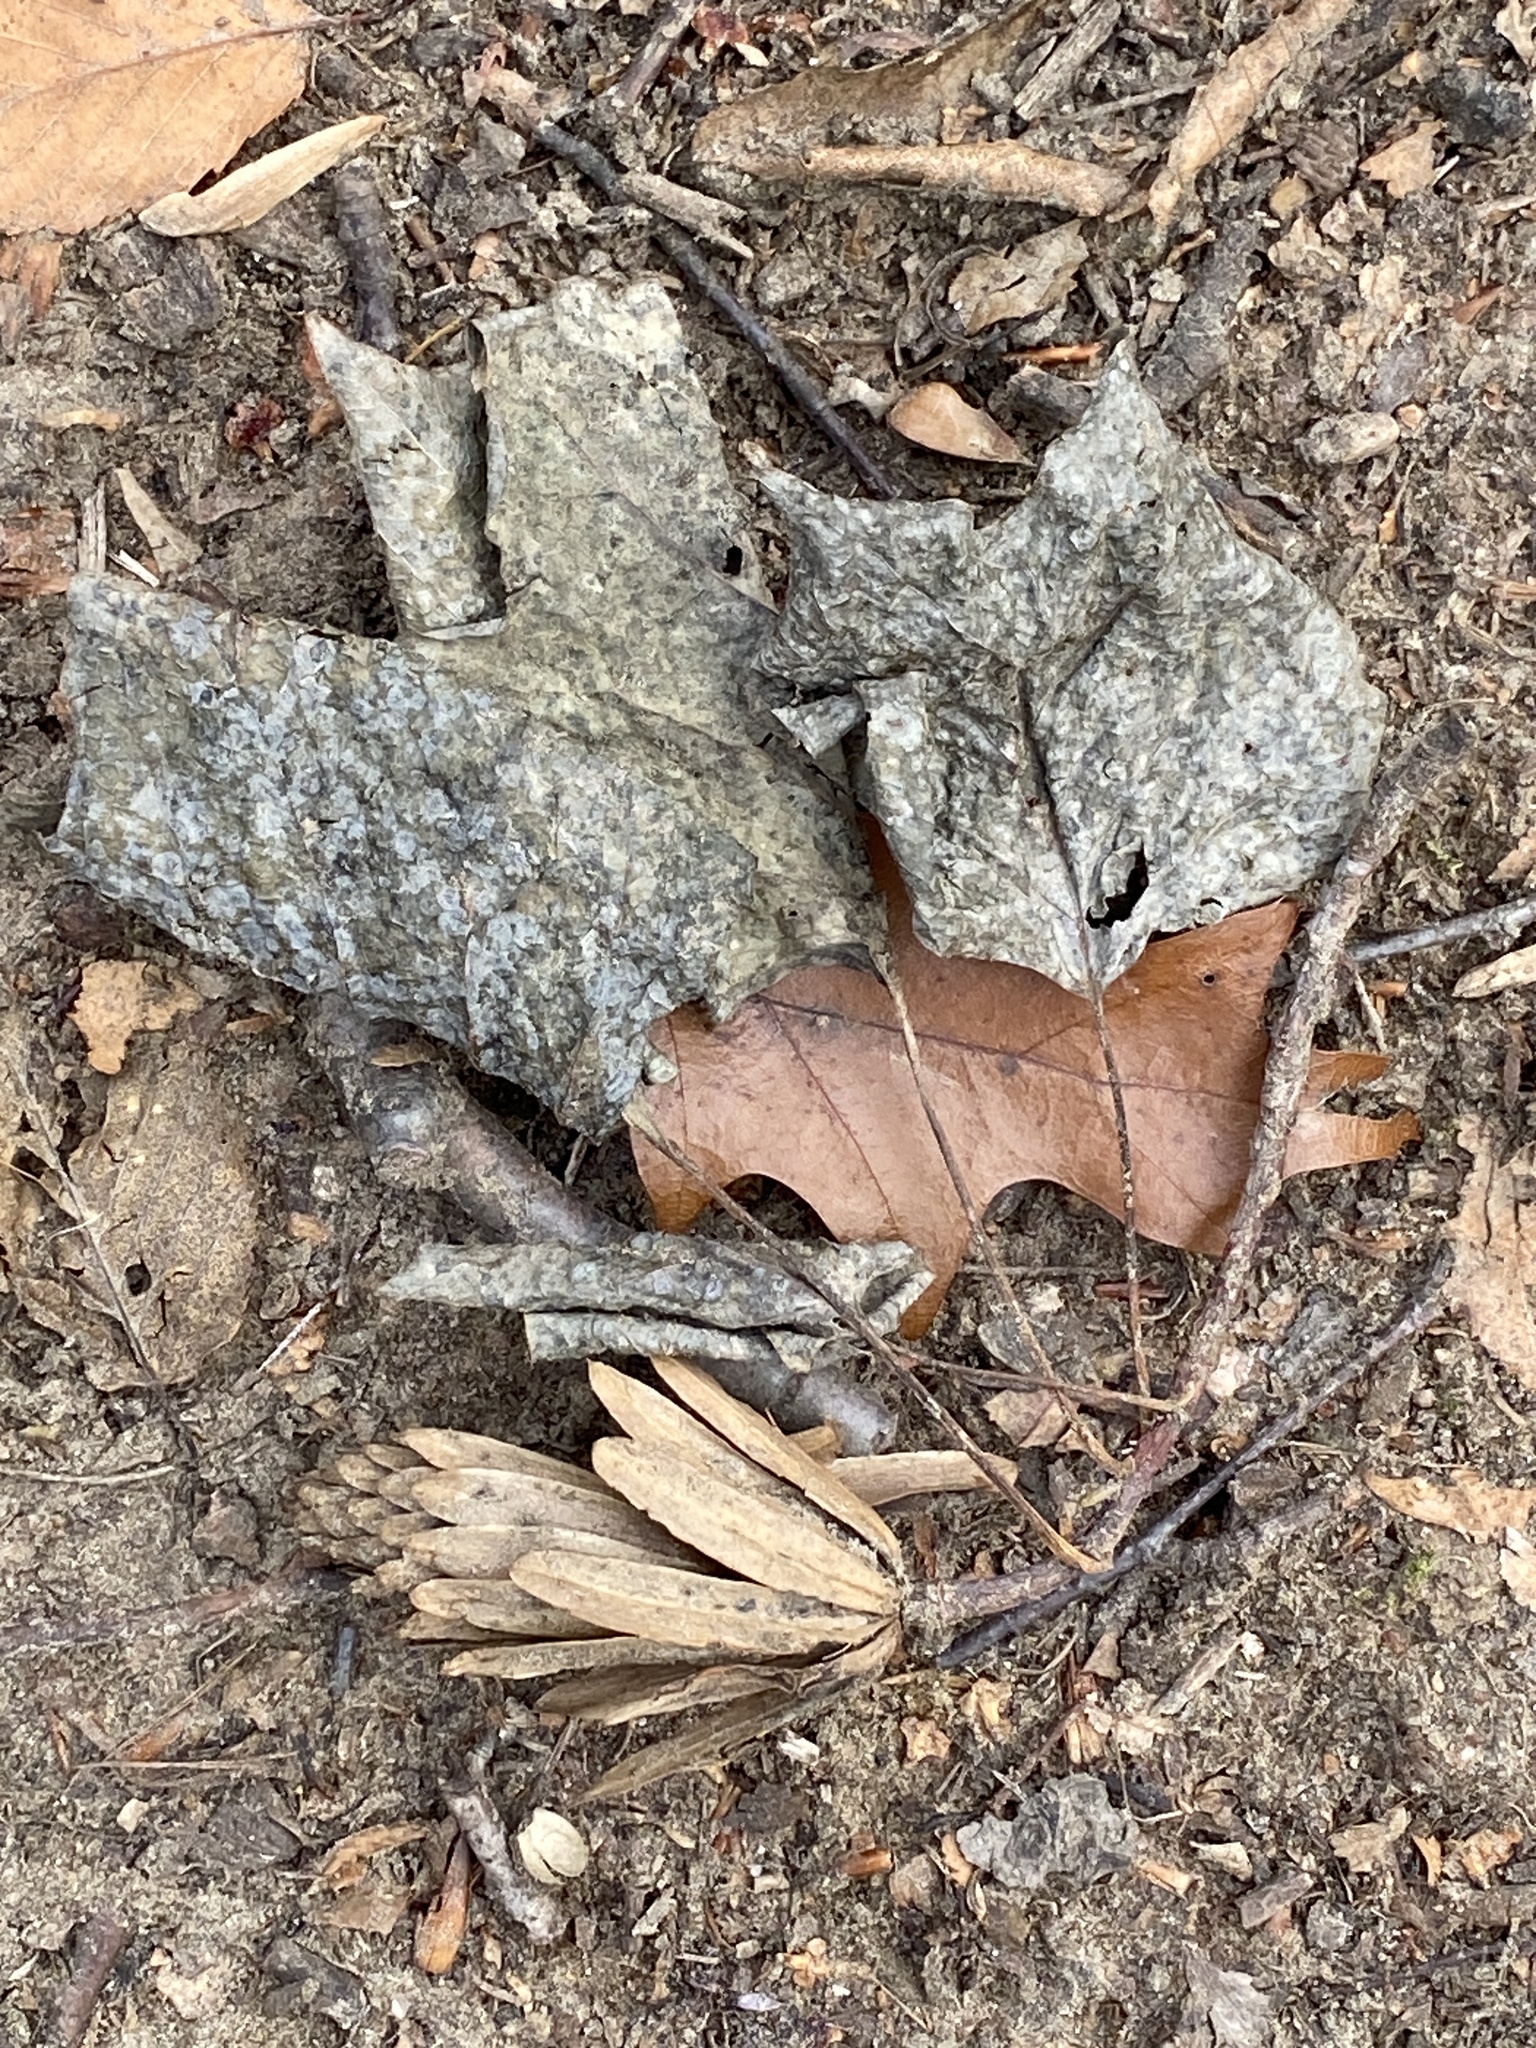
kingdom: Plantae
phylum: Tracheophyta
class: Magnoliopsida
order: Magnoliales
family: Magnoliaceae
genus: Liriodendron
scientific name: Liriodendron tulipifera
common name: Tulip tree
